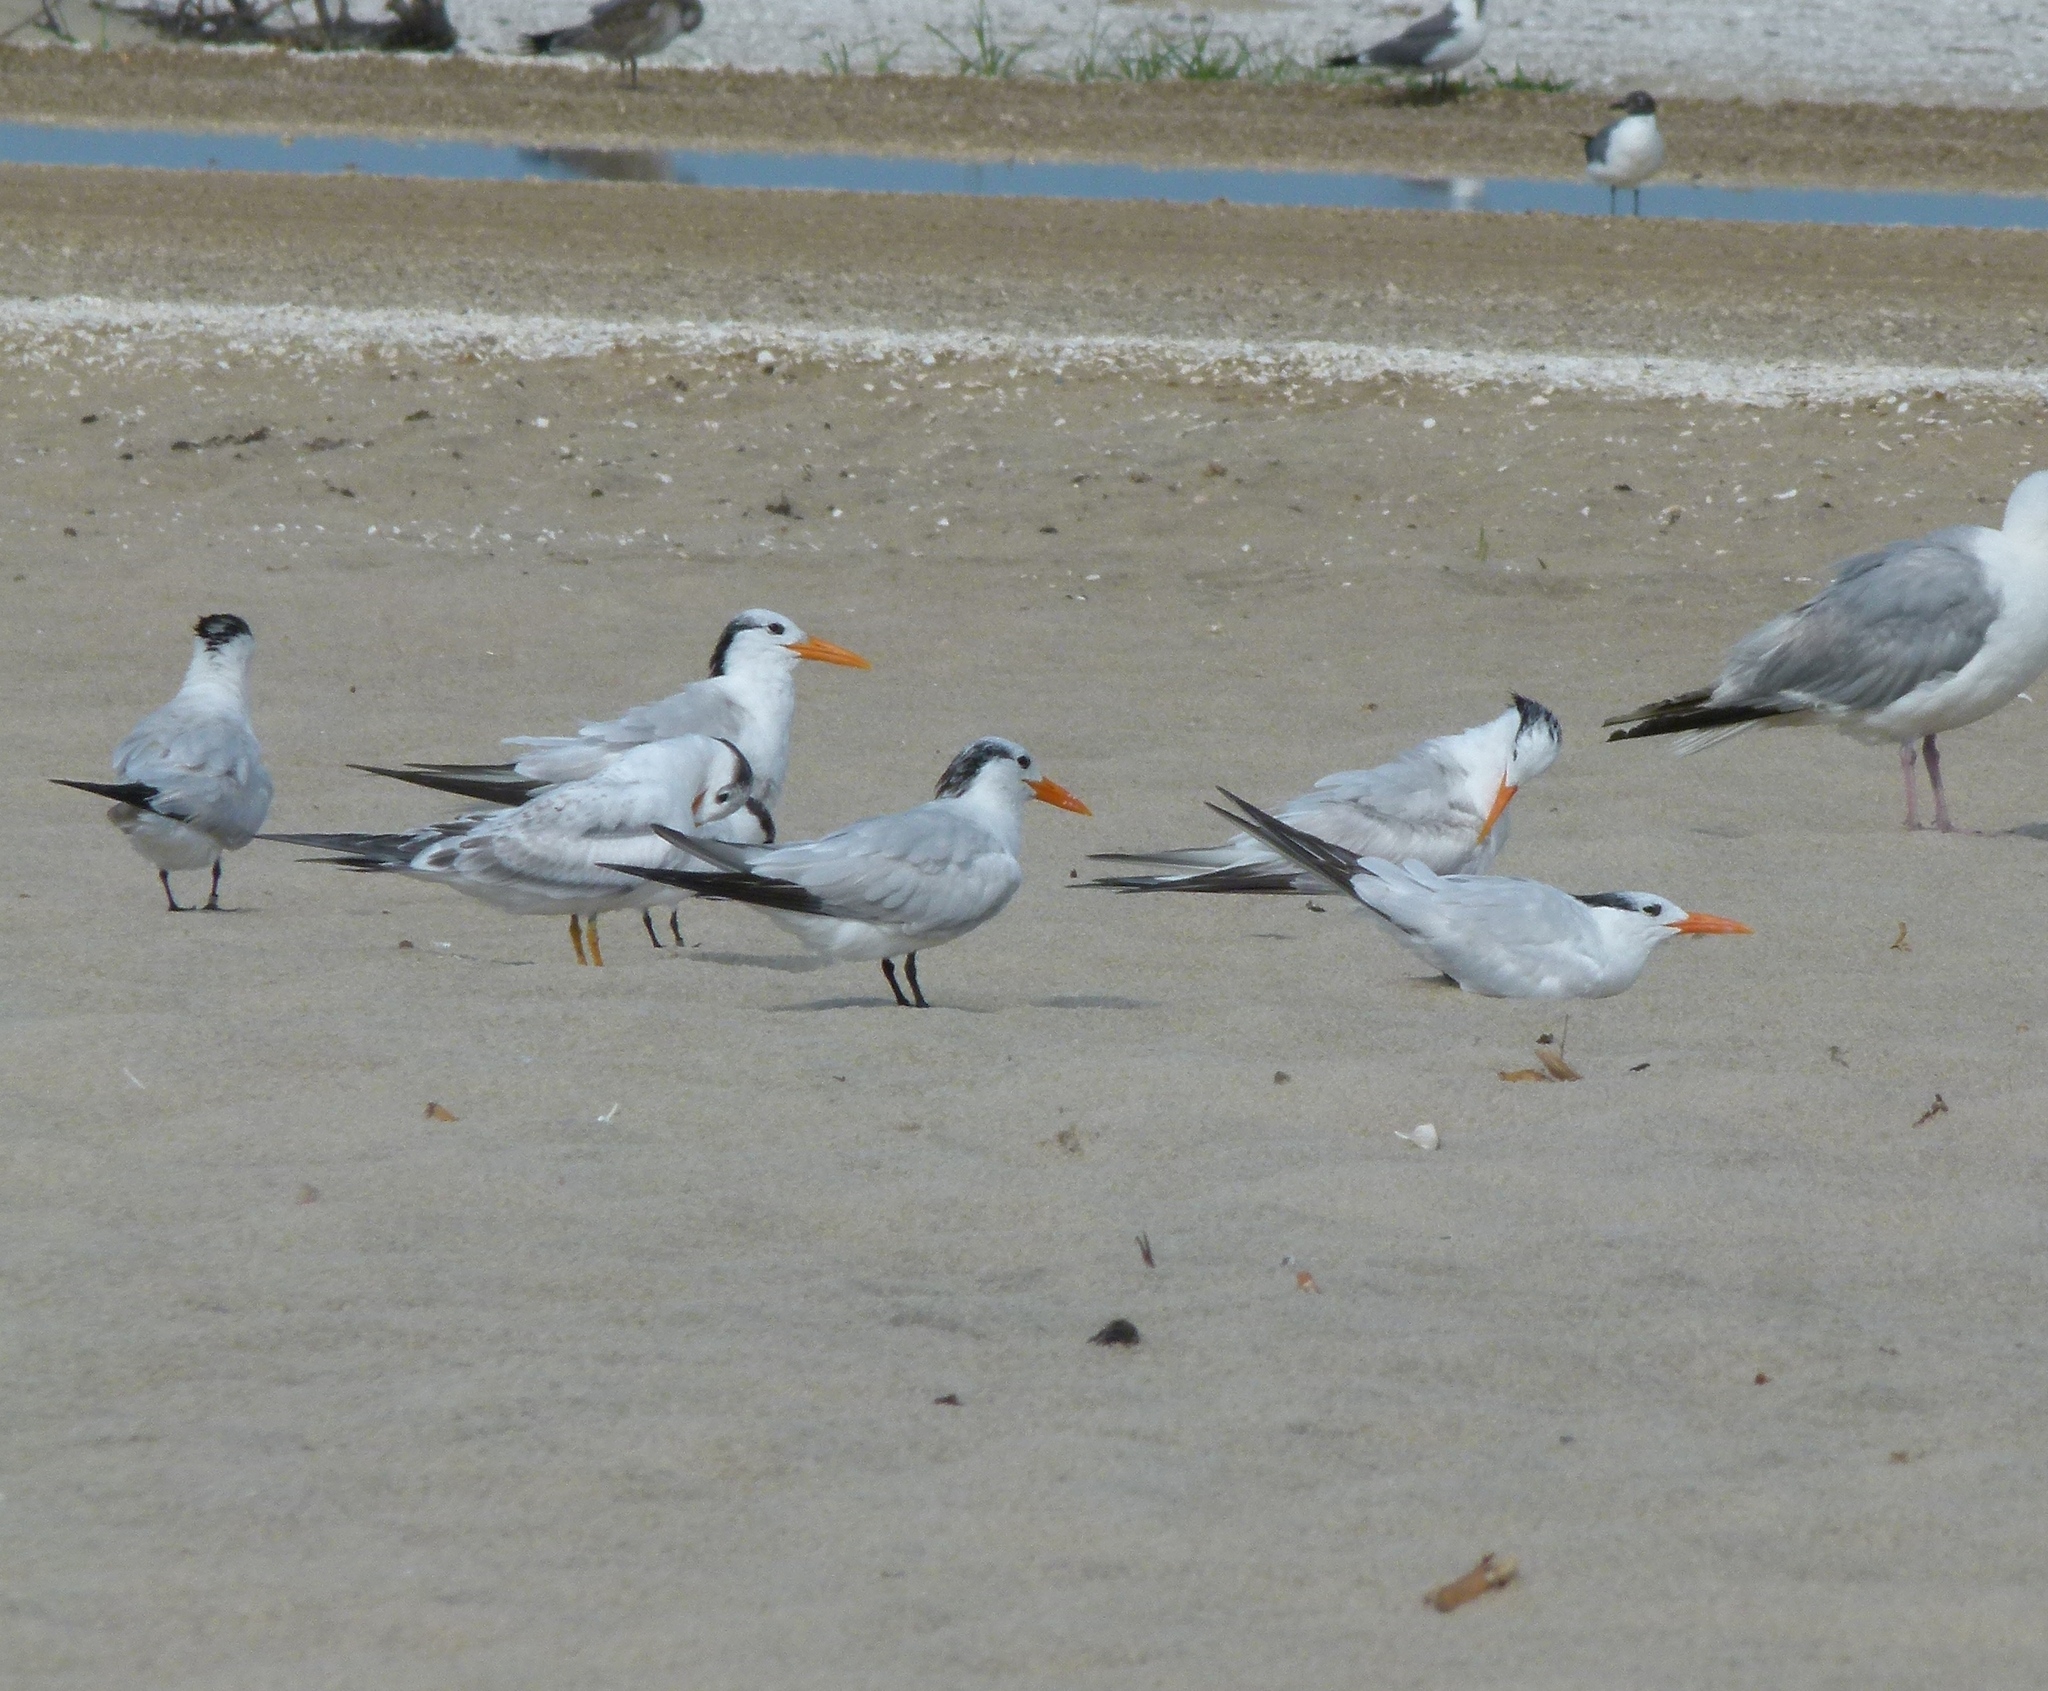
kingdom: Animalia
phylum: Chordata
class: Aves
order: Charadriiformes
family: Laridae
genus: Thalasseus
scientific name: Thalasseus maximus
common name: Royal tern
